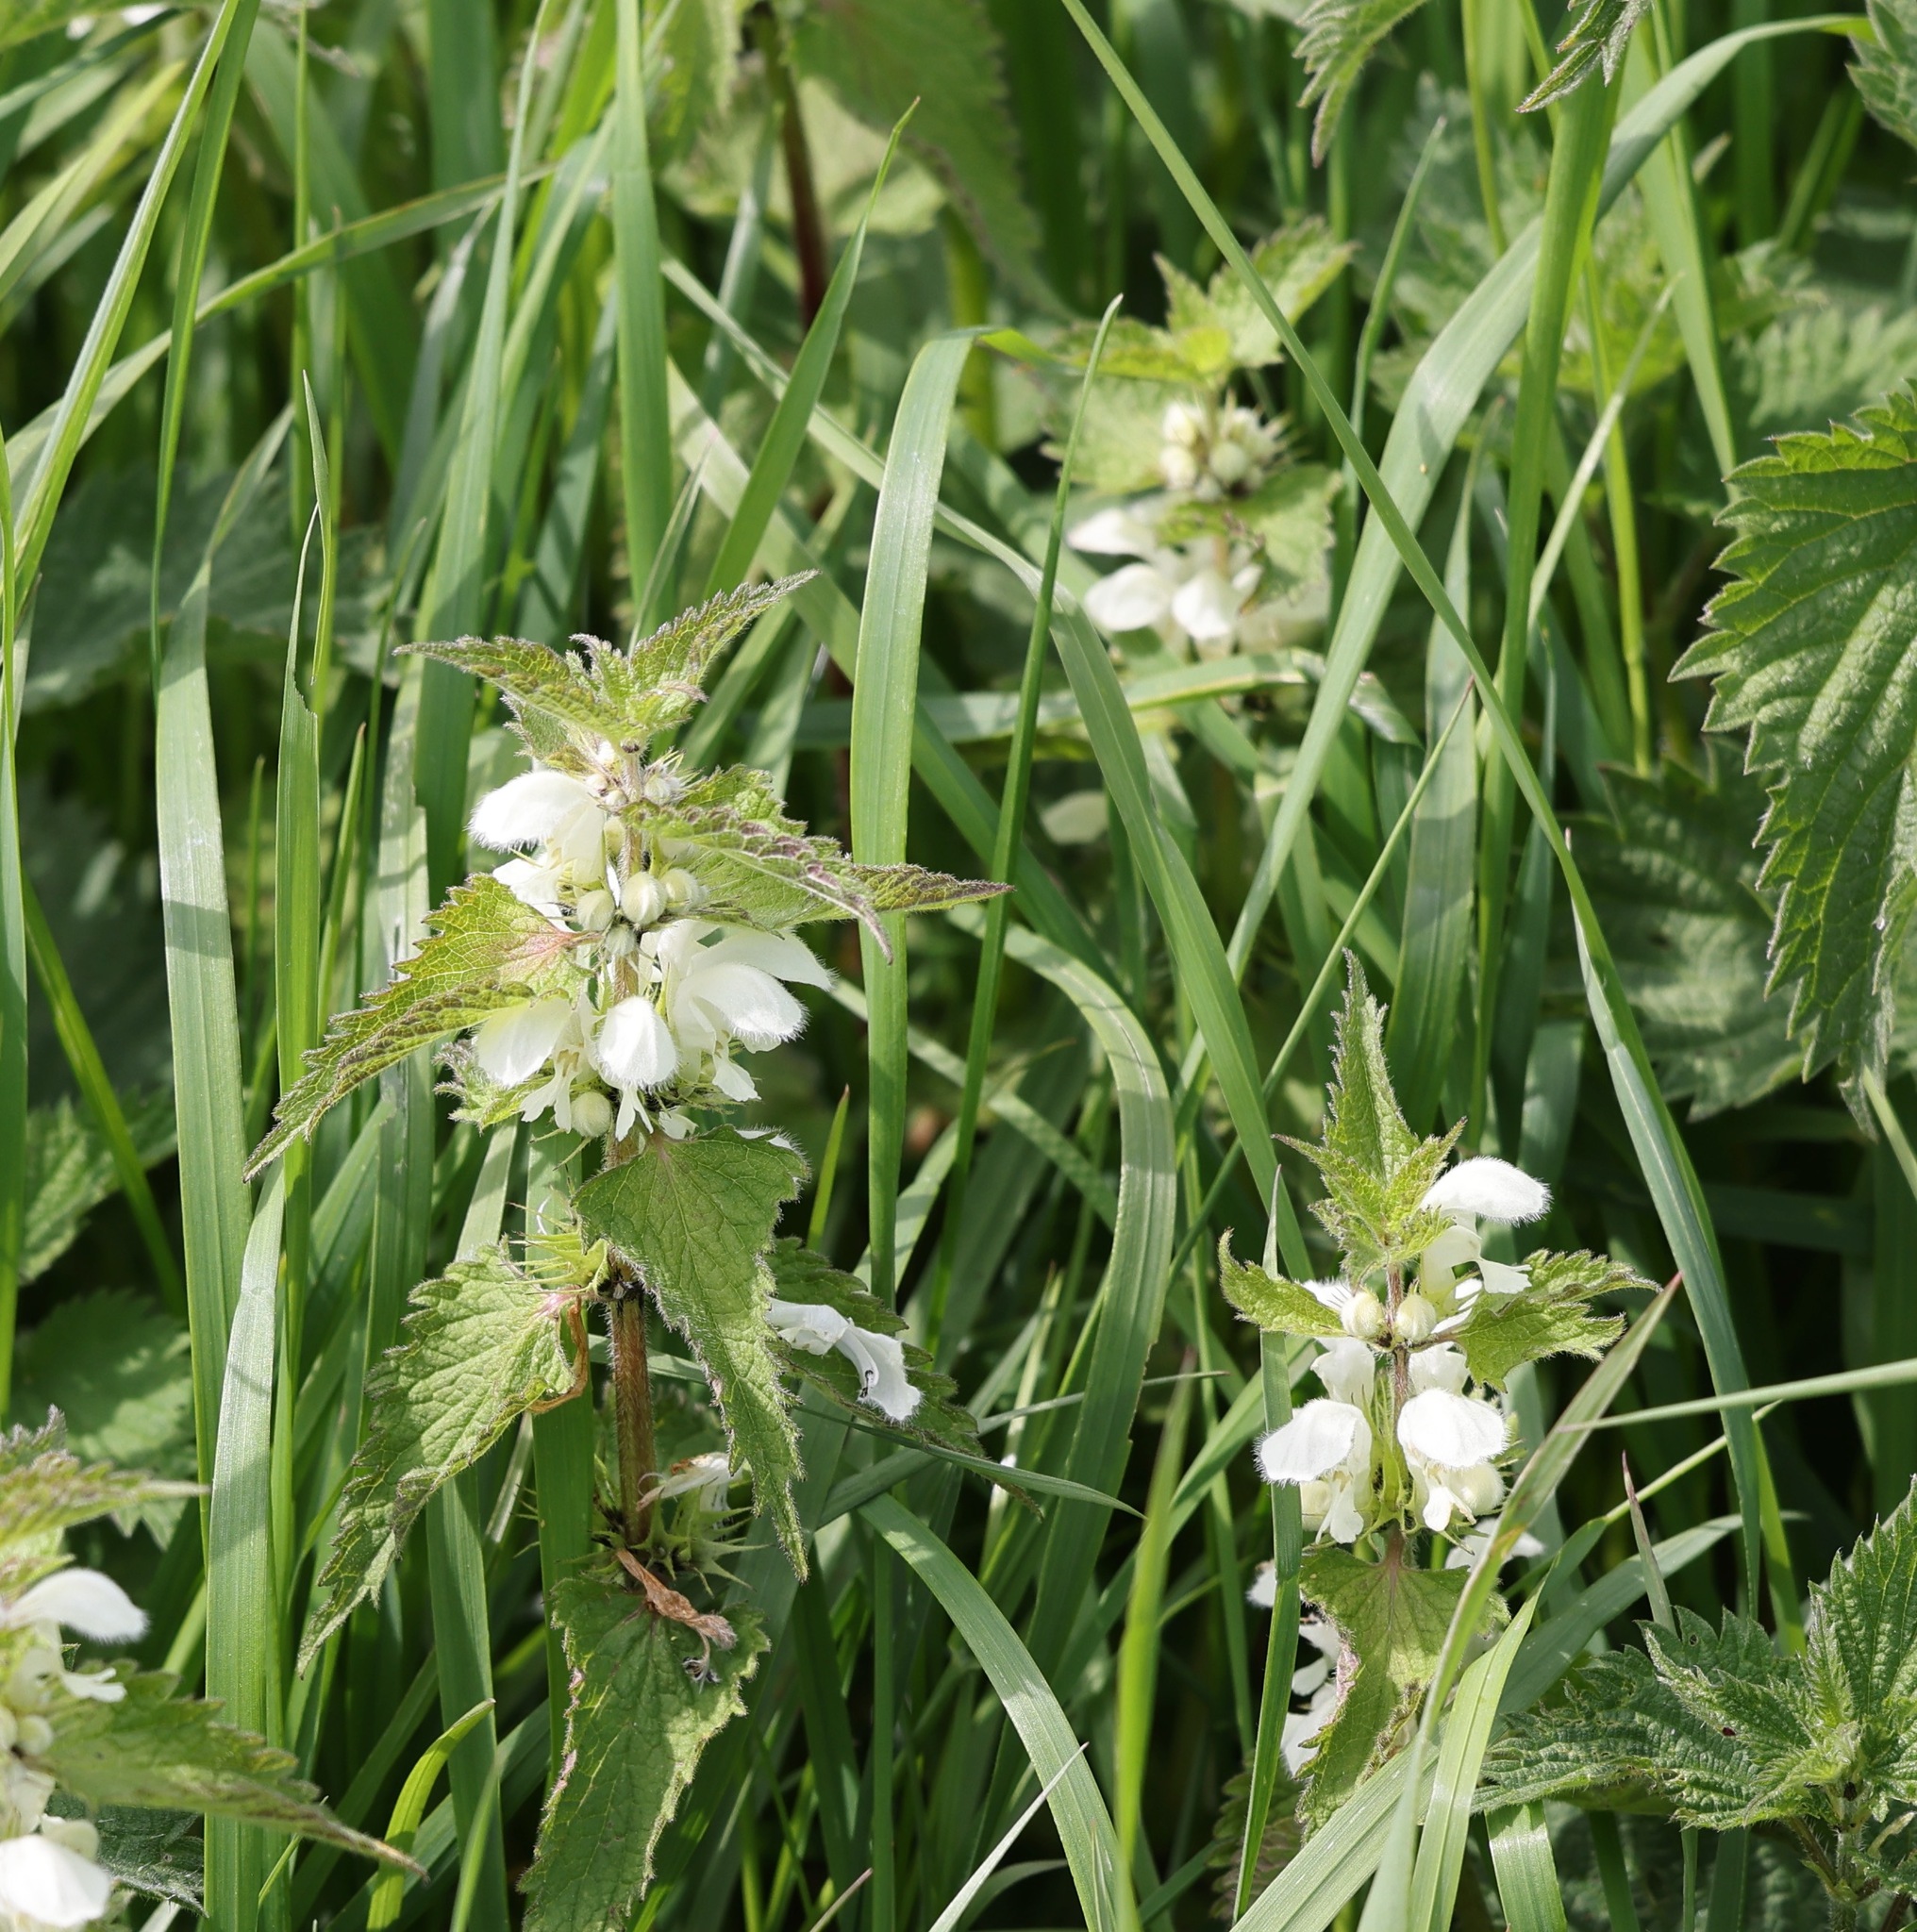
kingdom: Plantae
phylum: Tracheophyta
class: Magnoliopsida
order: Lamiales
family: Lamiaceae
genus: Lamium
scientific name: Lamium album
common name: White dead-nettle
